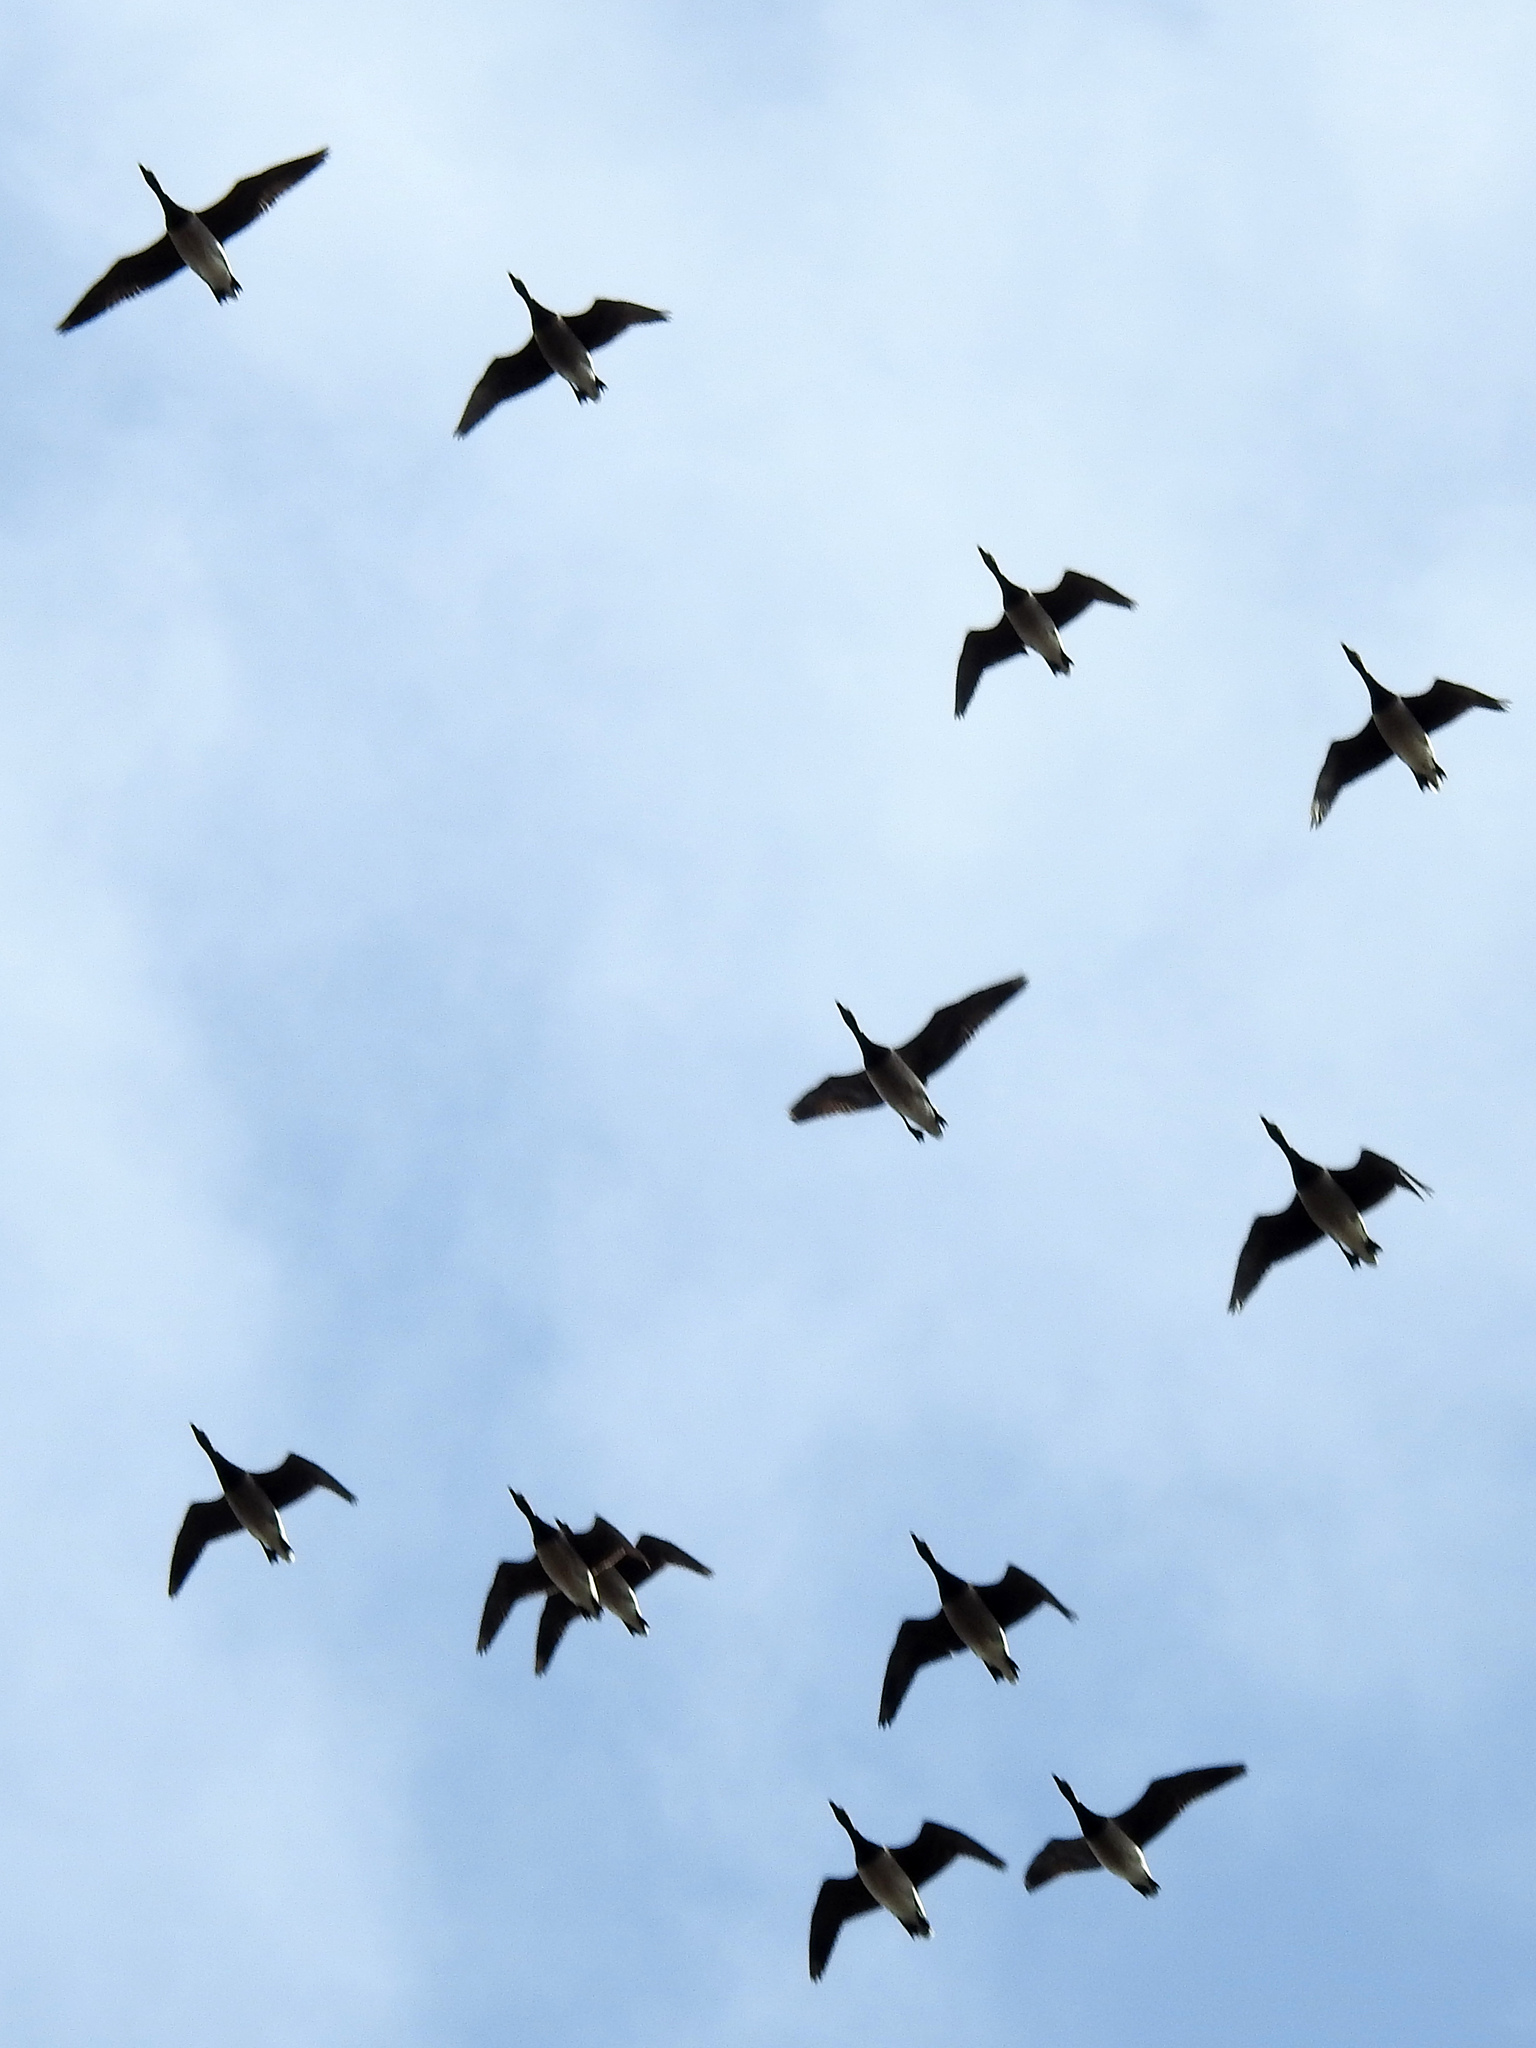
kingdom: Animalia
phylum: Chordata
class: Aves
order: Anseriformes
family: Anatidae
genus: Branta
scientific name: Branta bernicla
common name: Brant goose
